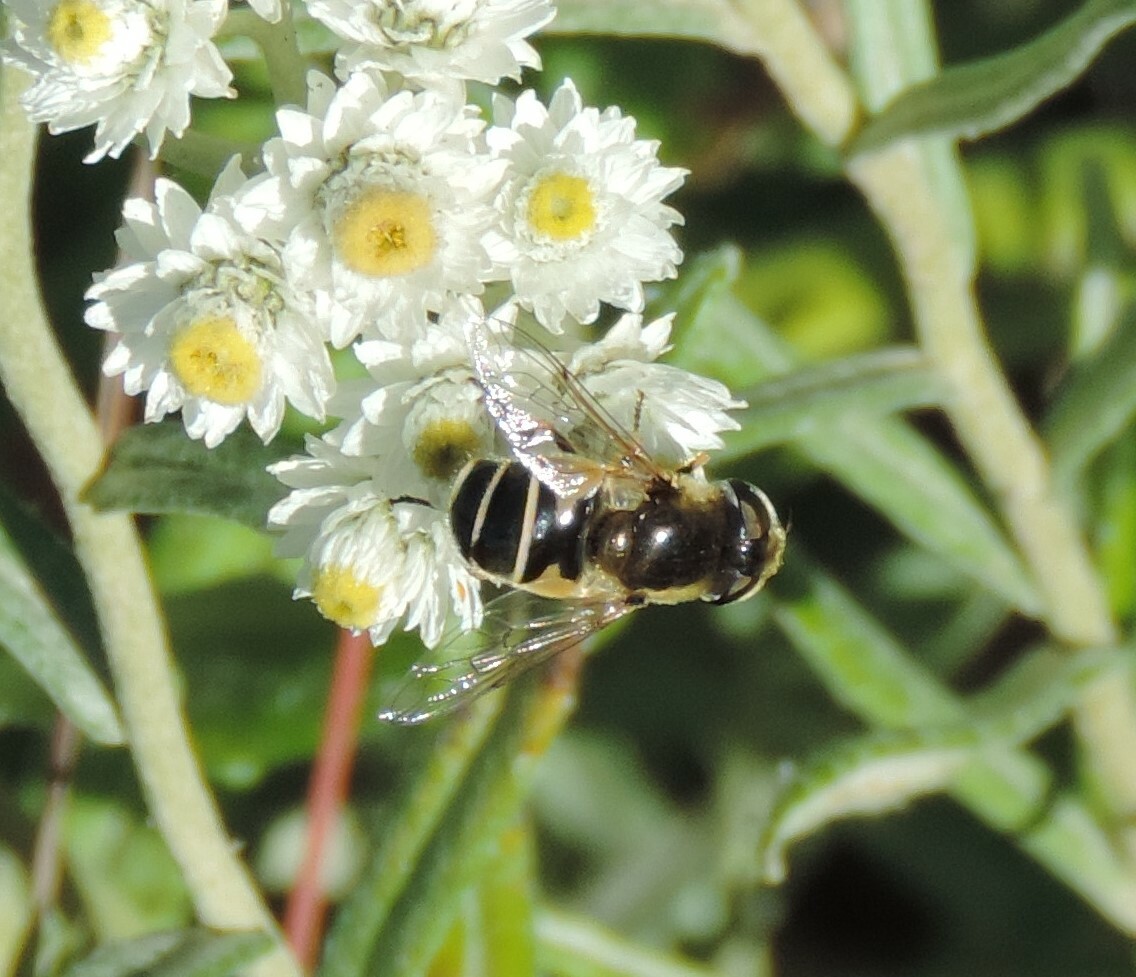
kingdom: Animalia
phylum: Arthropoda
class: Insecta
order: Diptera
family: Syrphidae
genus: Eristalis
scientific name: Eristalis hirta
